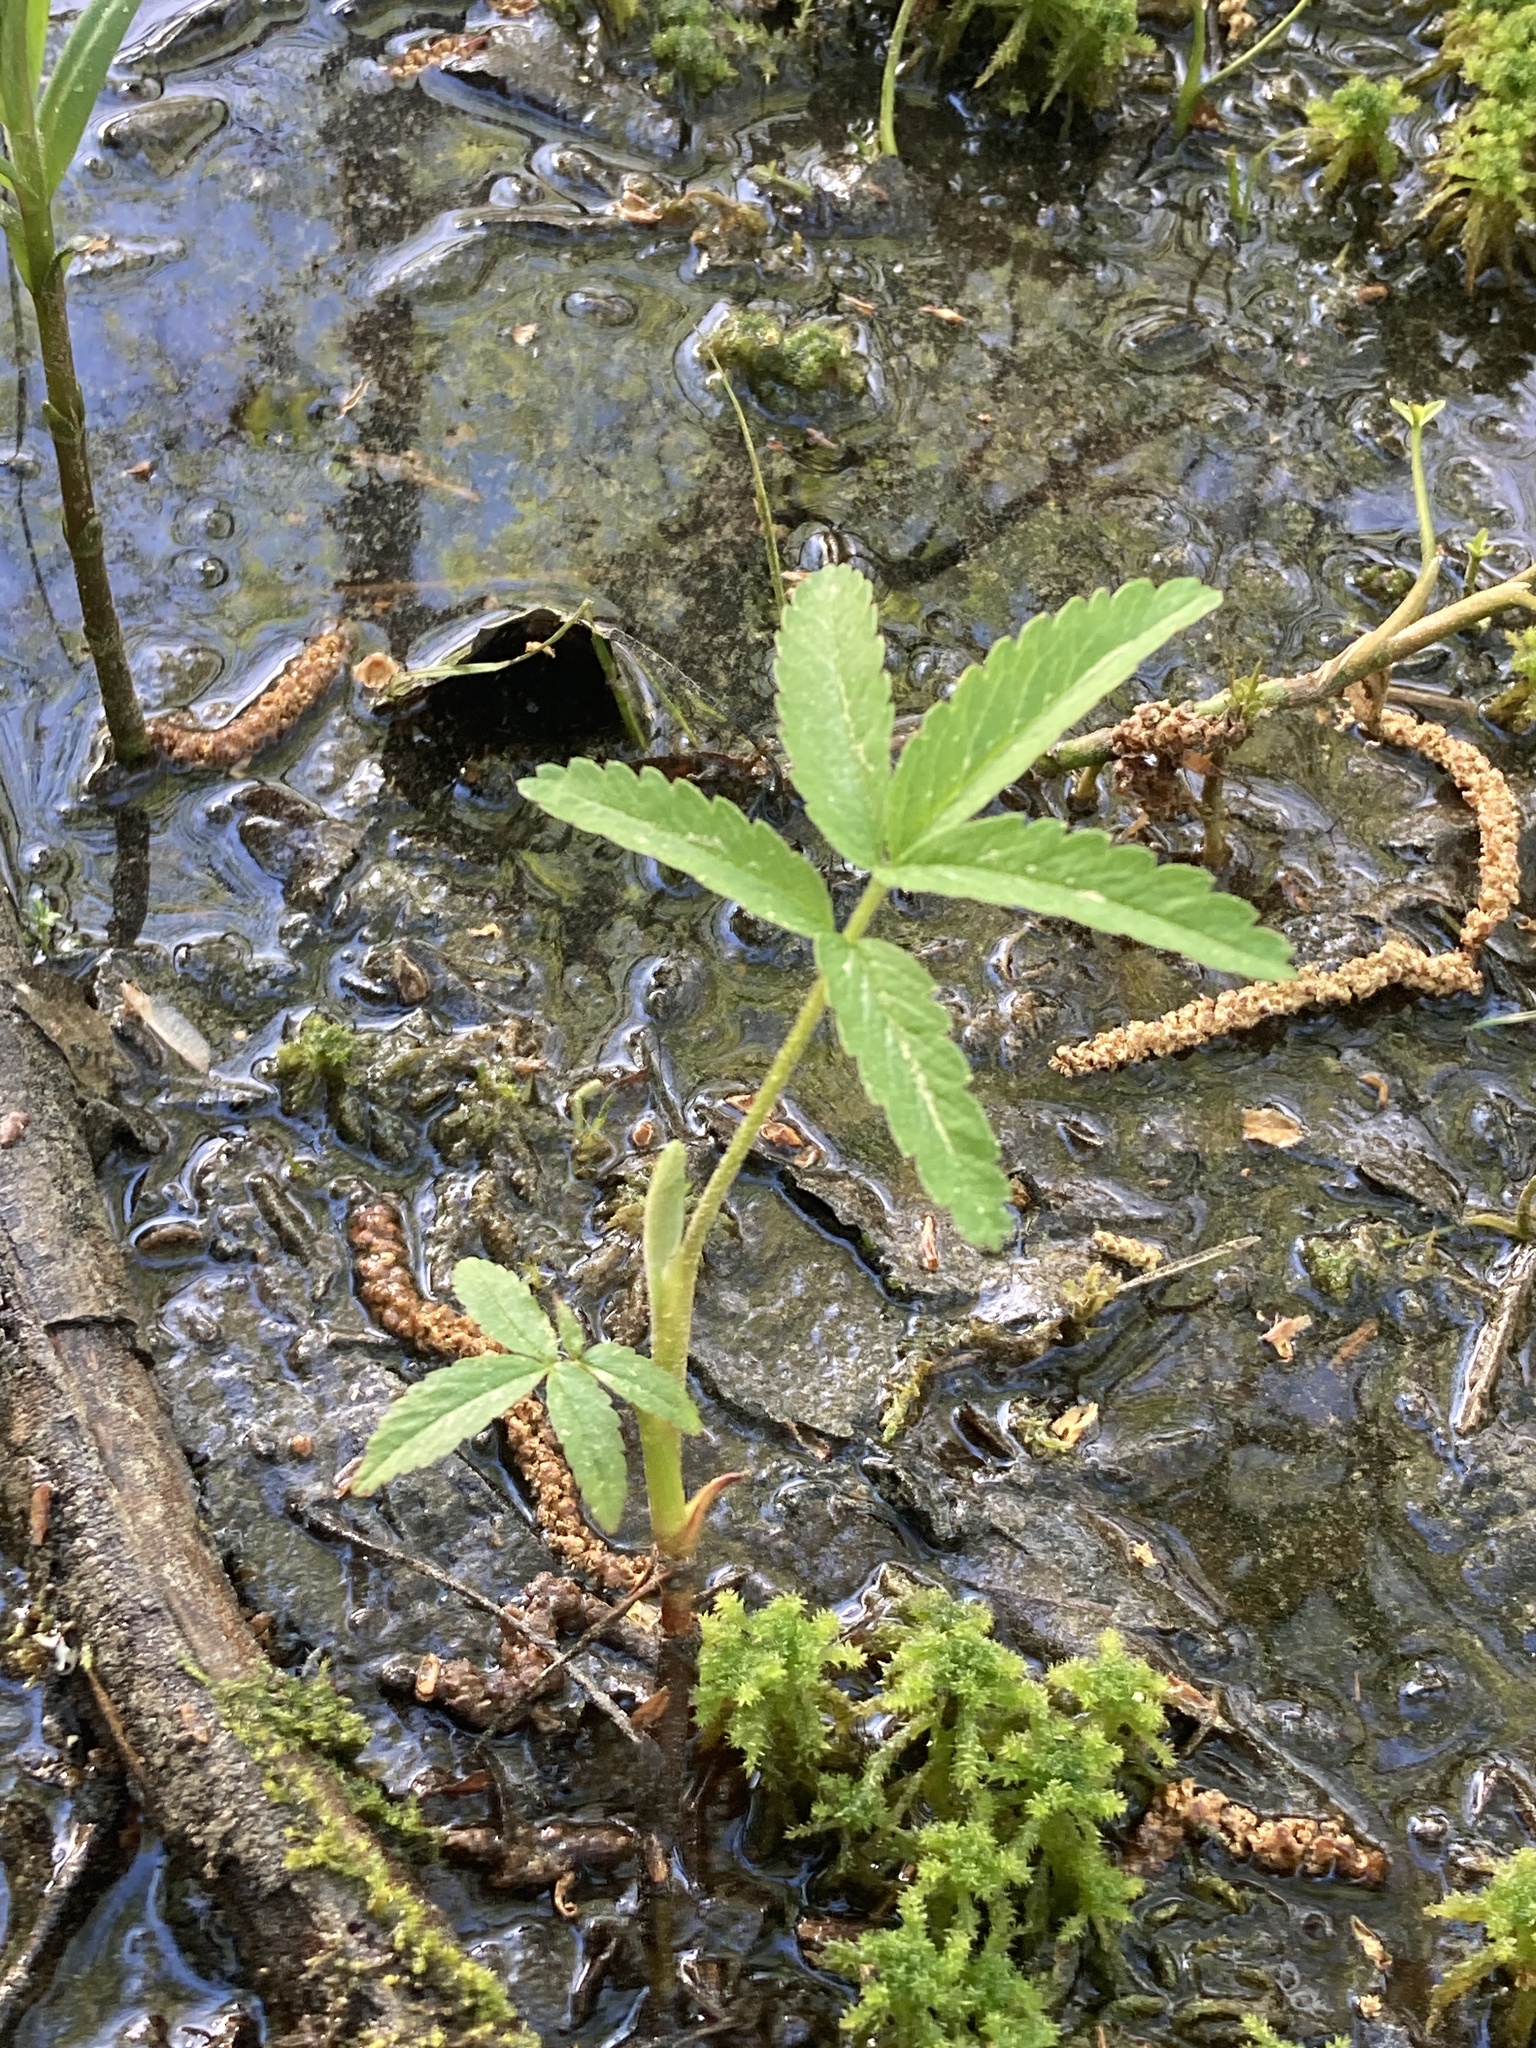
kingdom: Plantae
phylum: Tracheophyta
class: Magnoliopsida
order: Rosales
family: Rosaceae
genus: Comarum
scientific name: Comarum palustre
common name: Marsh cinquefoil
